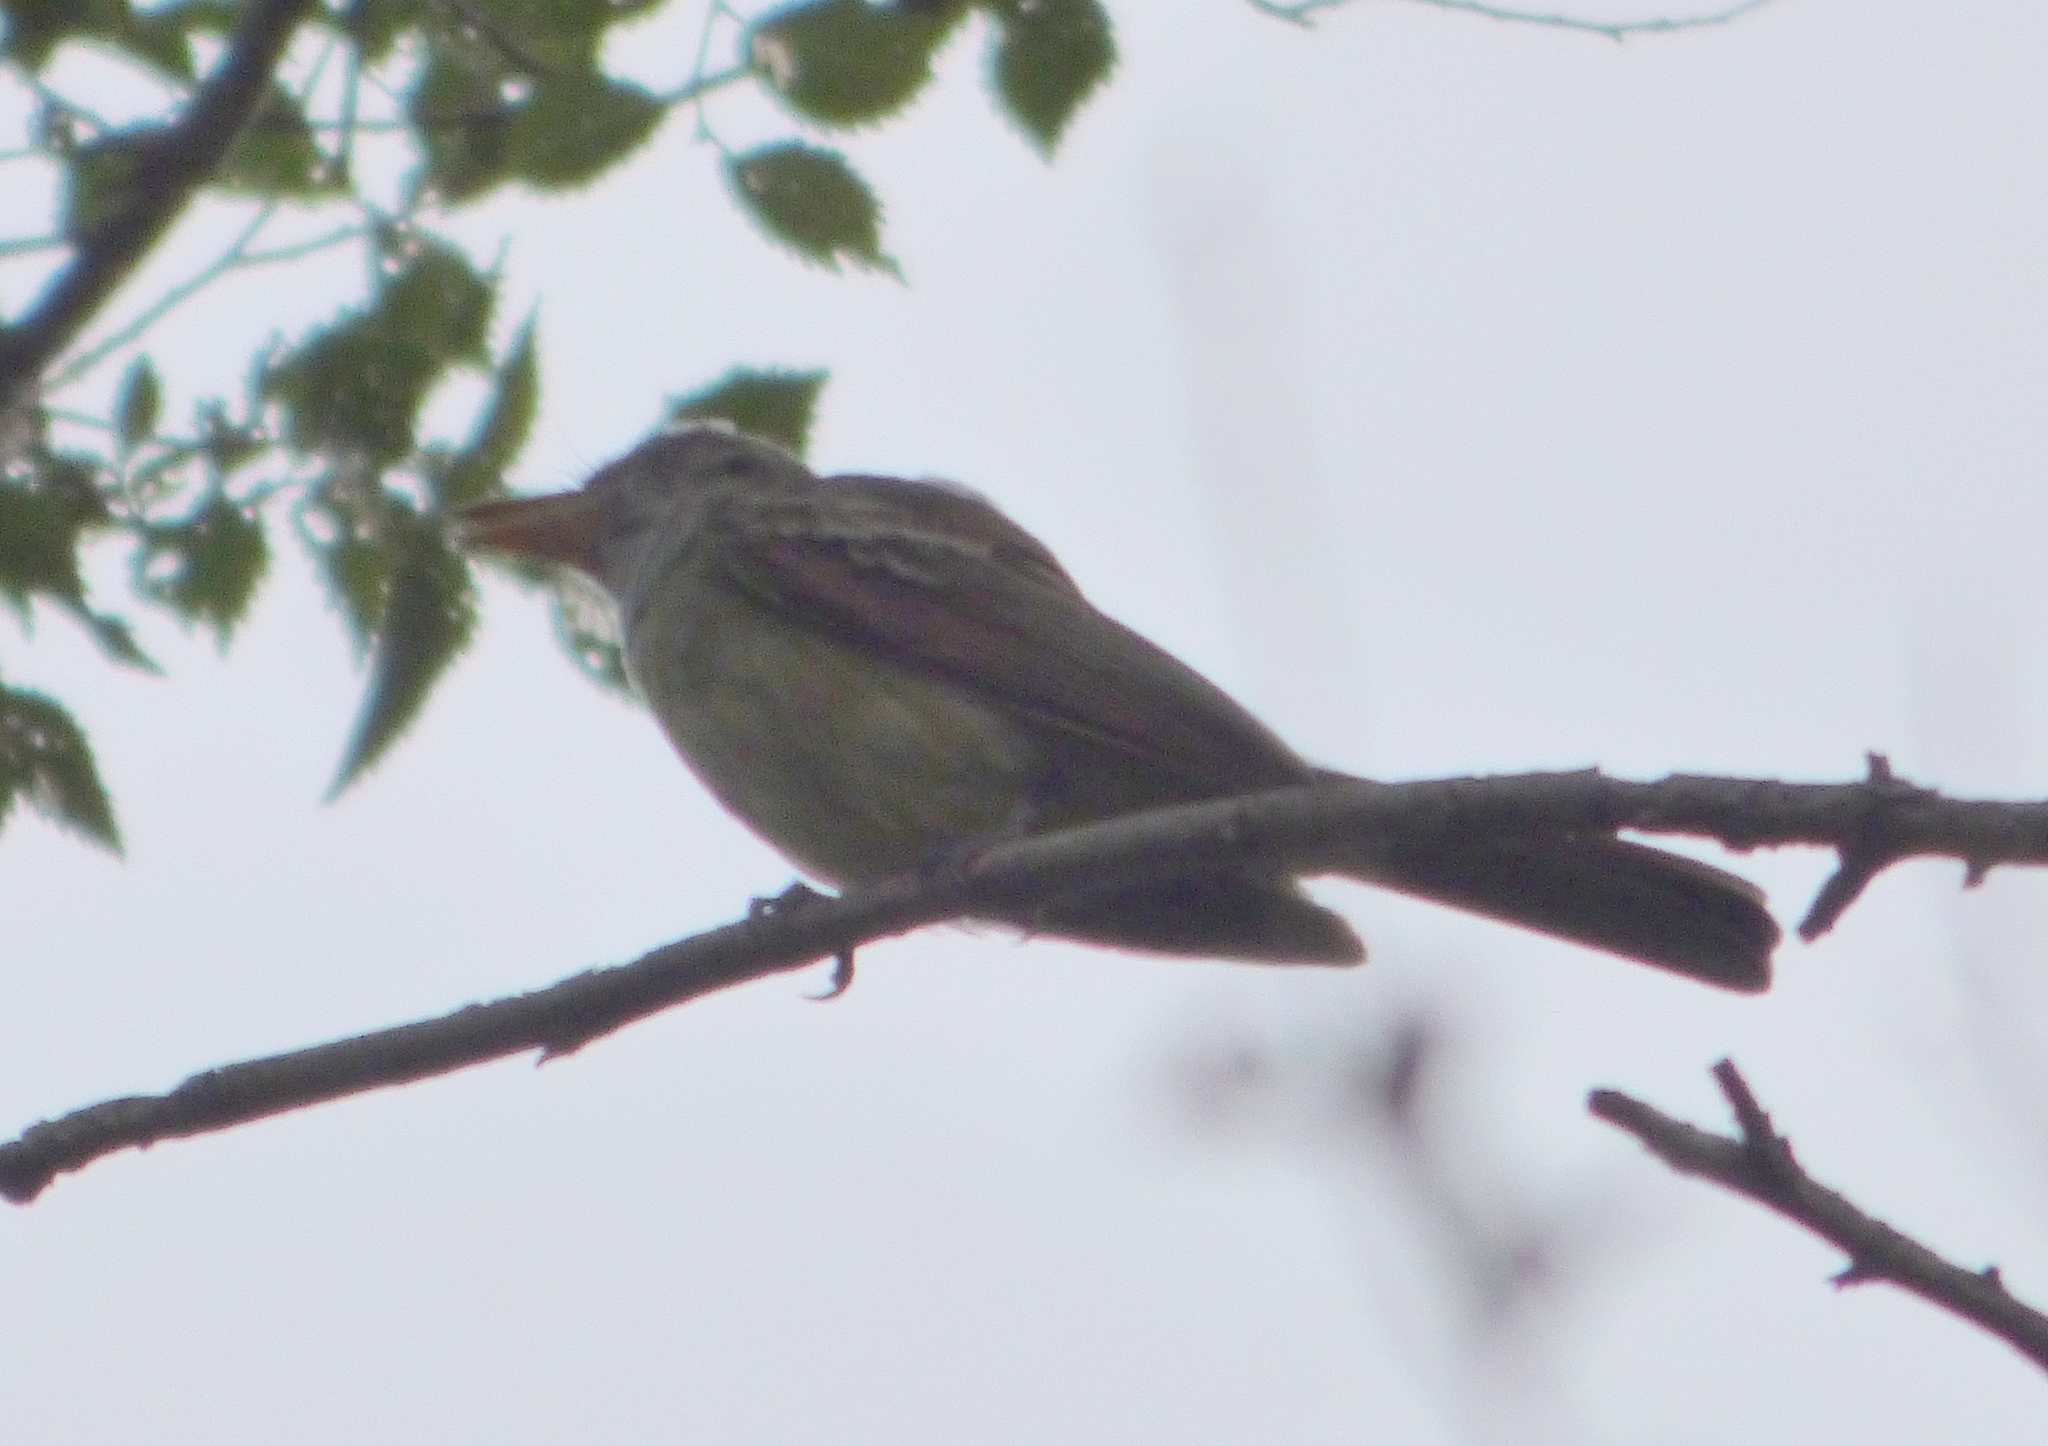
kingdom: Animalia
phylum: Chordata
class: Aves
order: Passeriformes
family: Tyrannidae
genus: Myiarchus
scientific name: Myiarchus swainsoni
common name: Swainson's flycatcher
